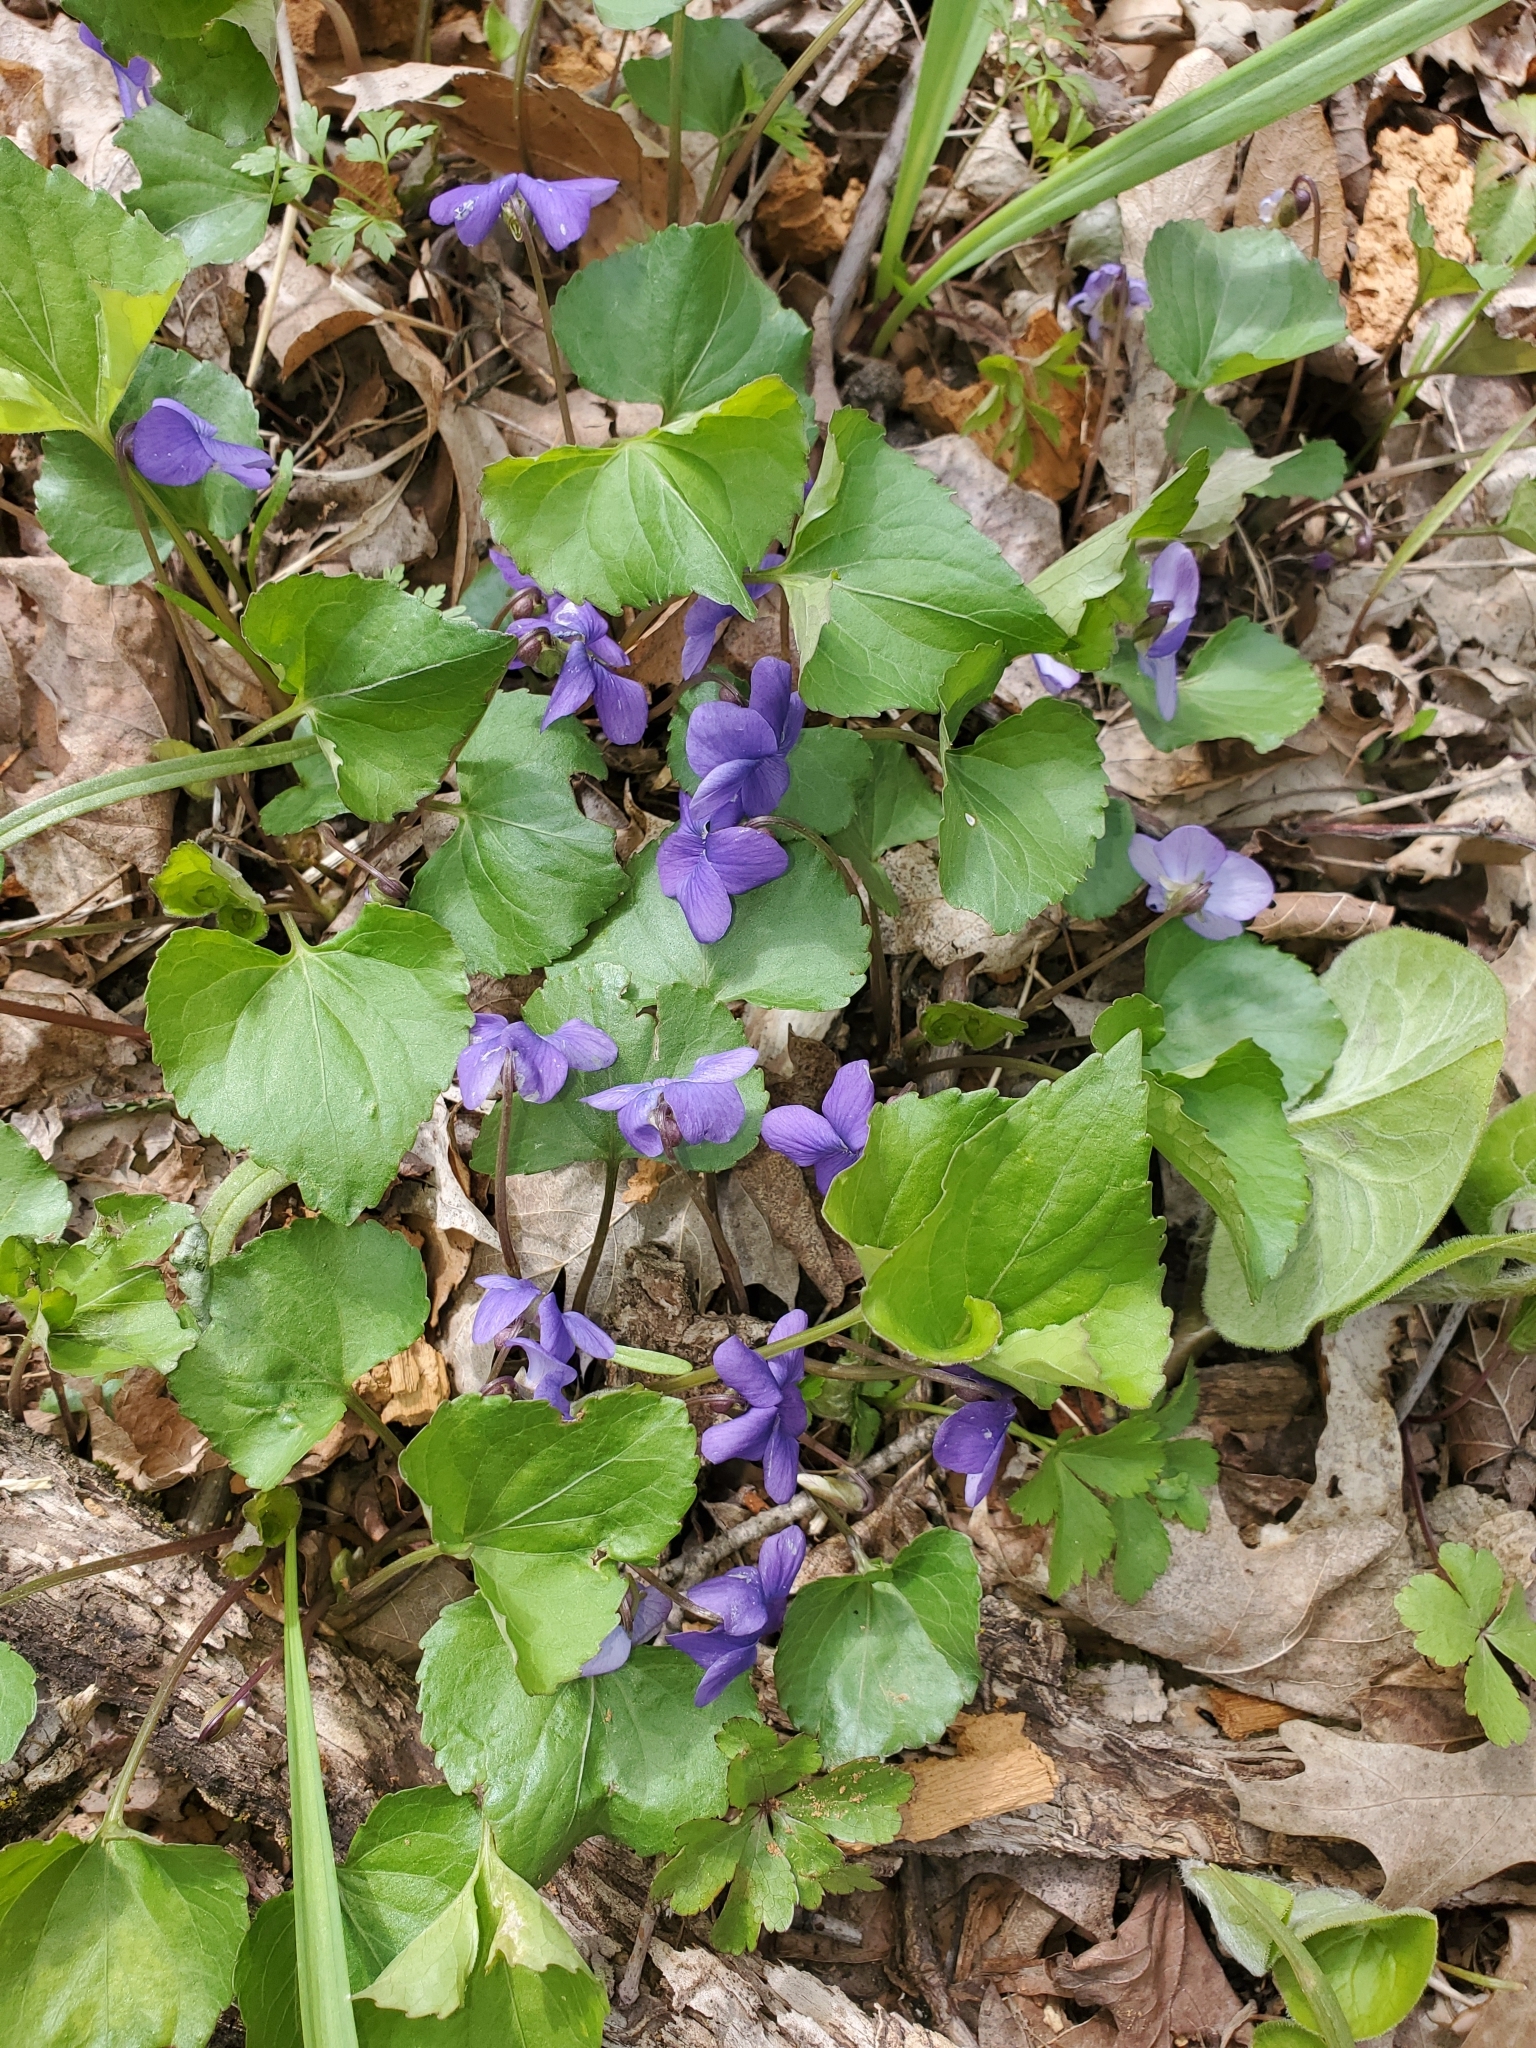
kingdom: Plantae
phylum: Tracheophyta
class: Magnoliopsida
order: Malpighiales
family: Violaceae
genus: Viola
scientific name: Viola sororia
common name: Dooryard violet
